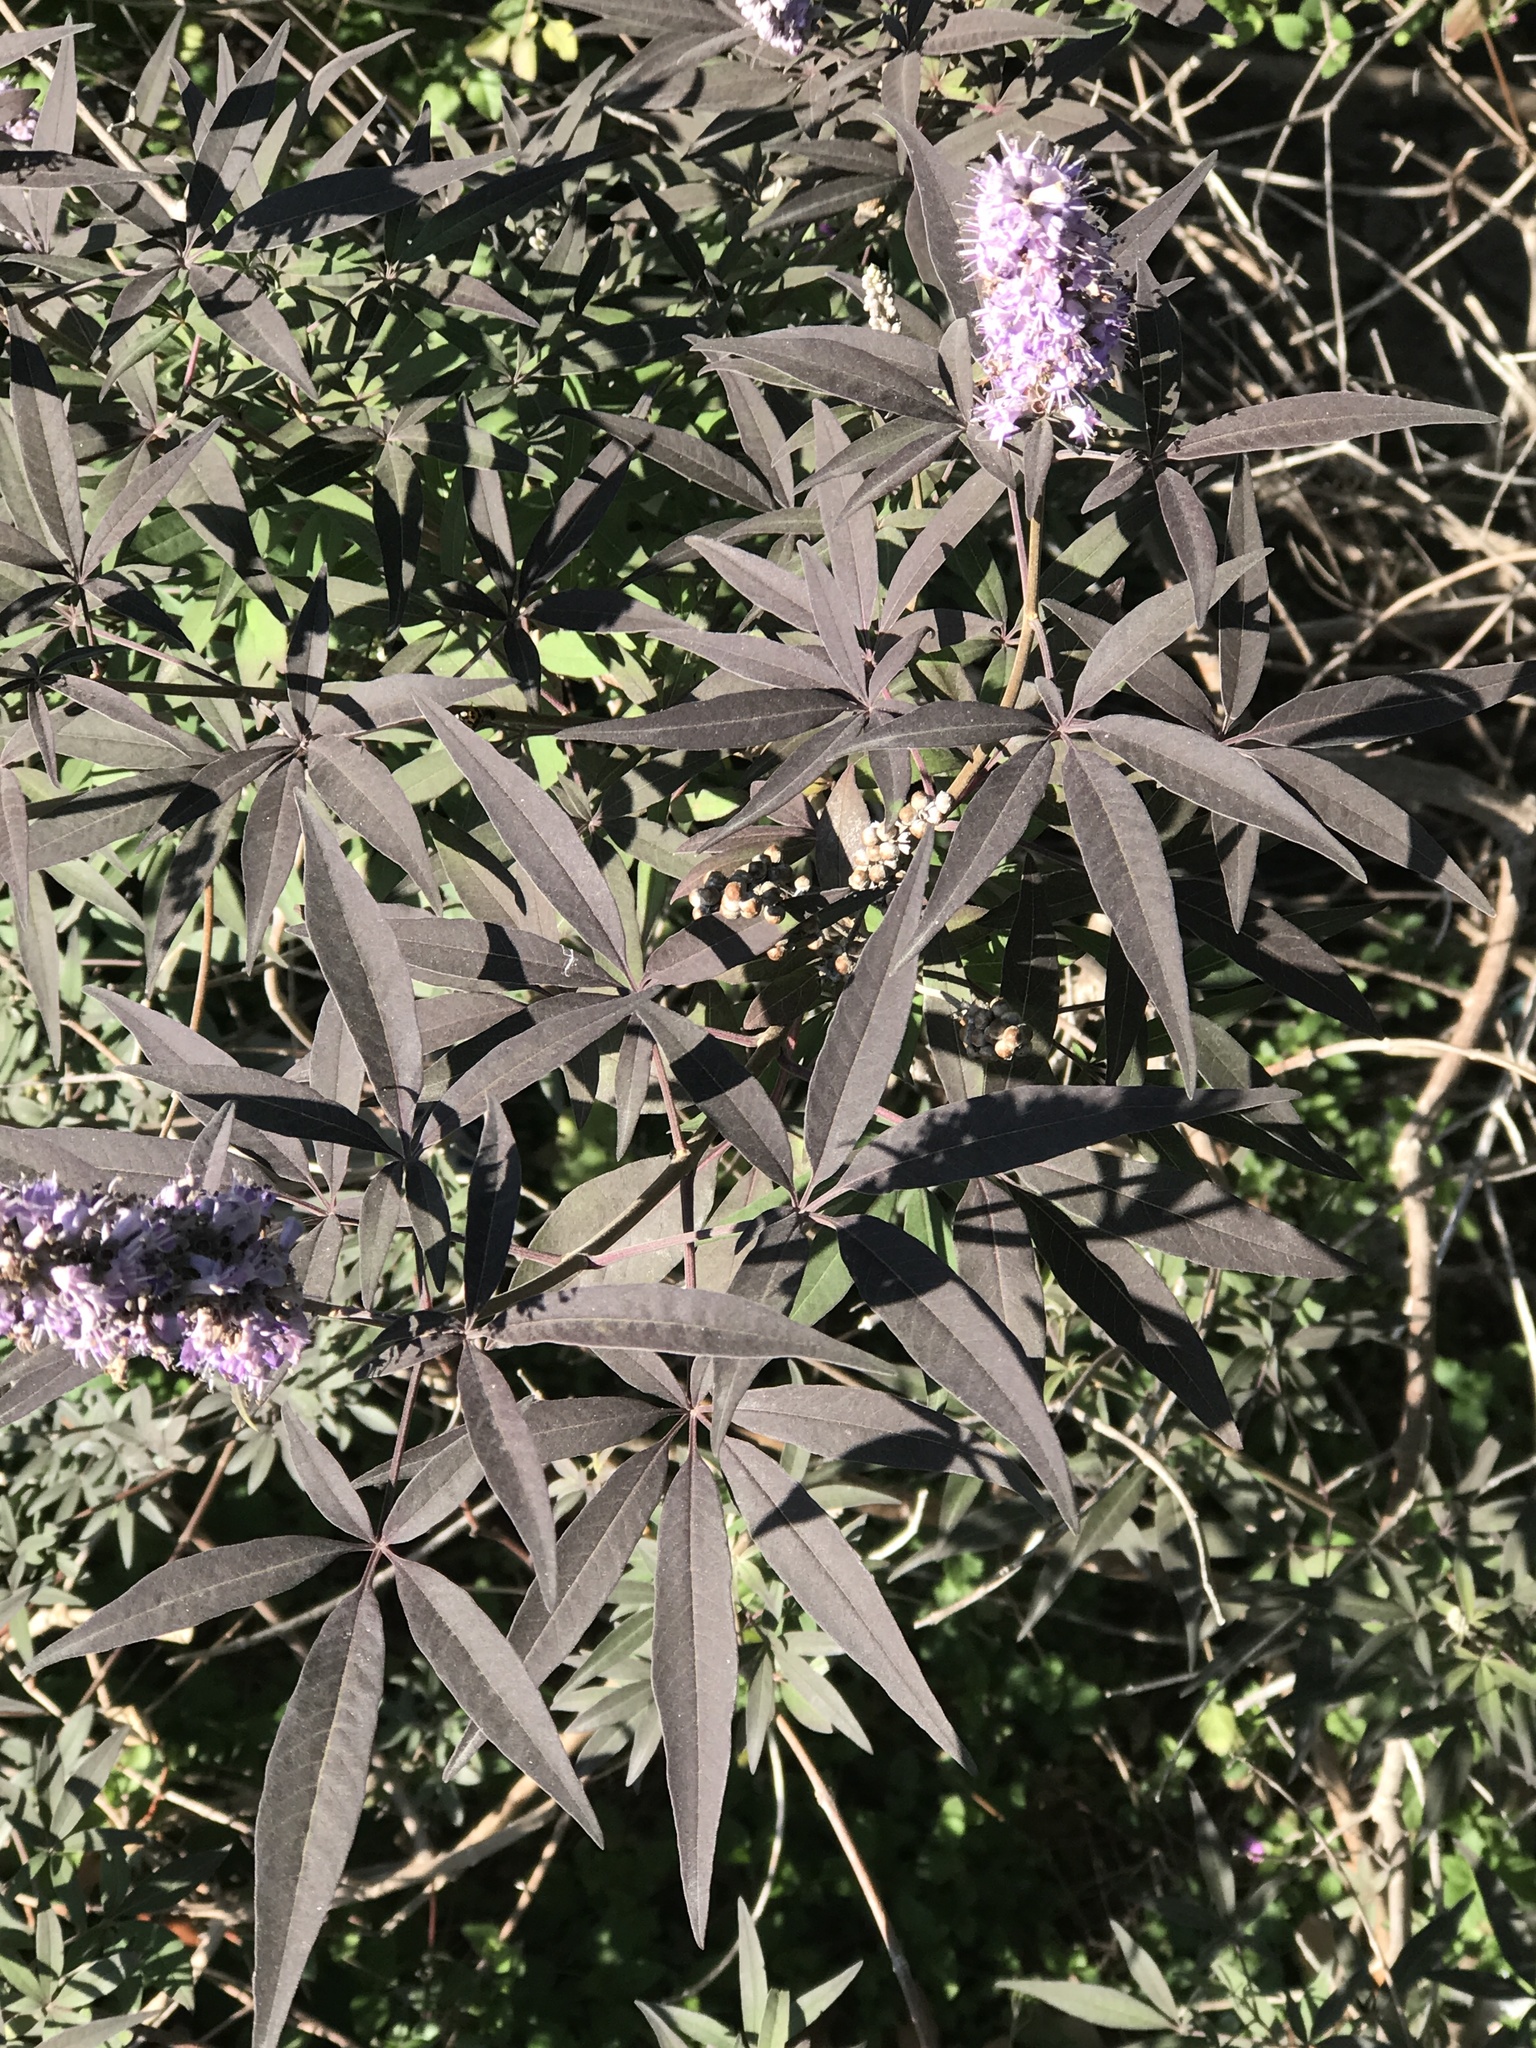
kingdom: Plantae
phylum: Tracheophyta
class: Magnoliopsida
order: Lamiales
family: Lamiaceae
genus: Vitex
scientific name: Vitex agnus-castus
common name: Chasteberry
